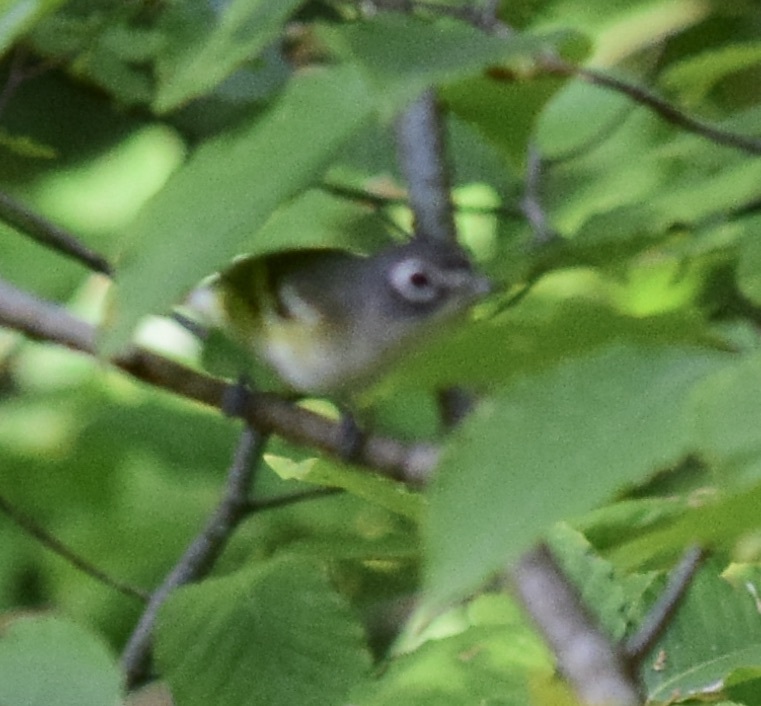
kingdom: Animalia
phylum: Chordata
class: Aves
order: Passeriformes
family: Vireonidae
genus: Vireo
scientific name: Vireo solitarius
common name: Blue-headed vireo
